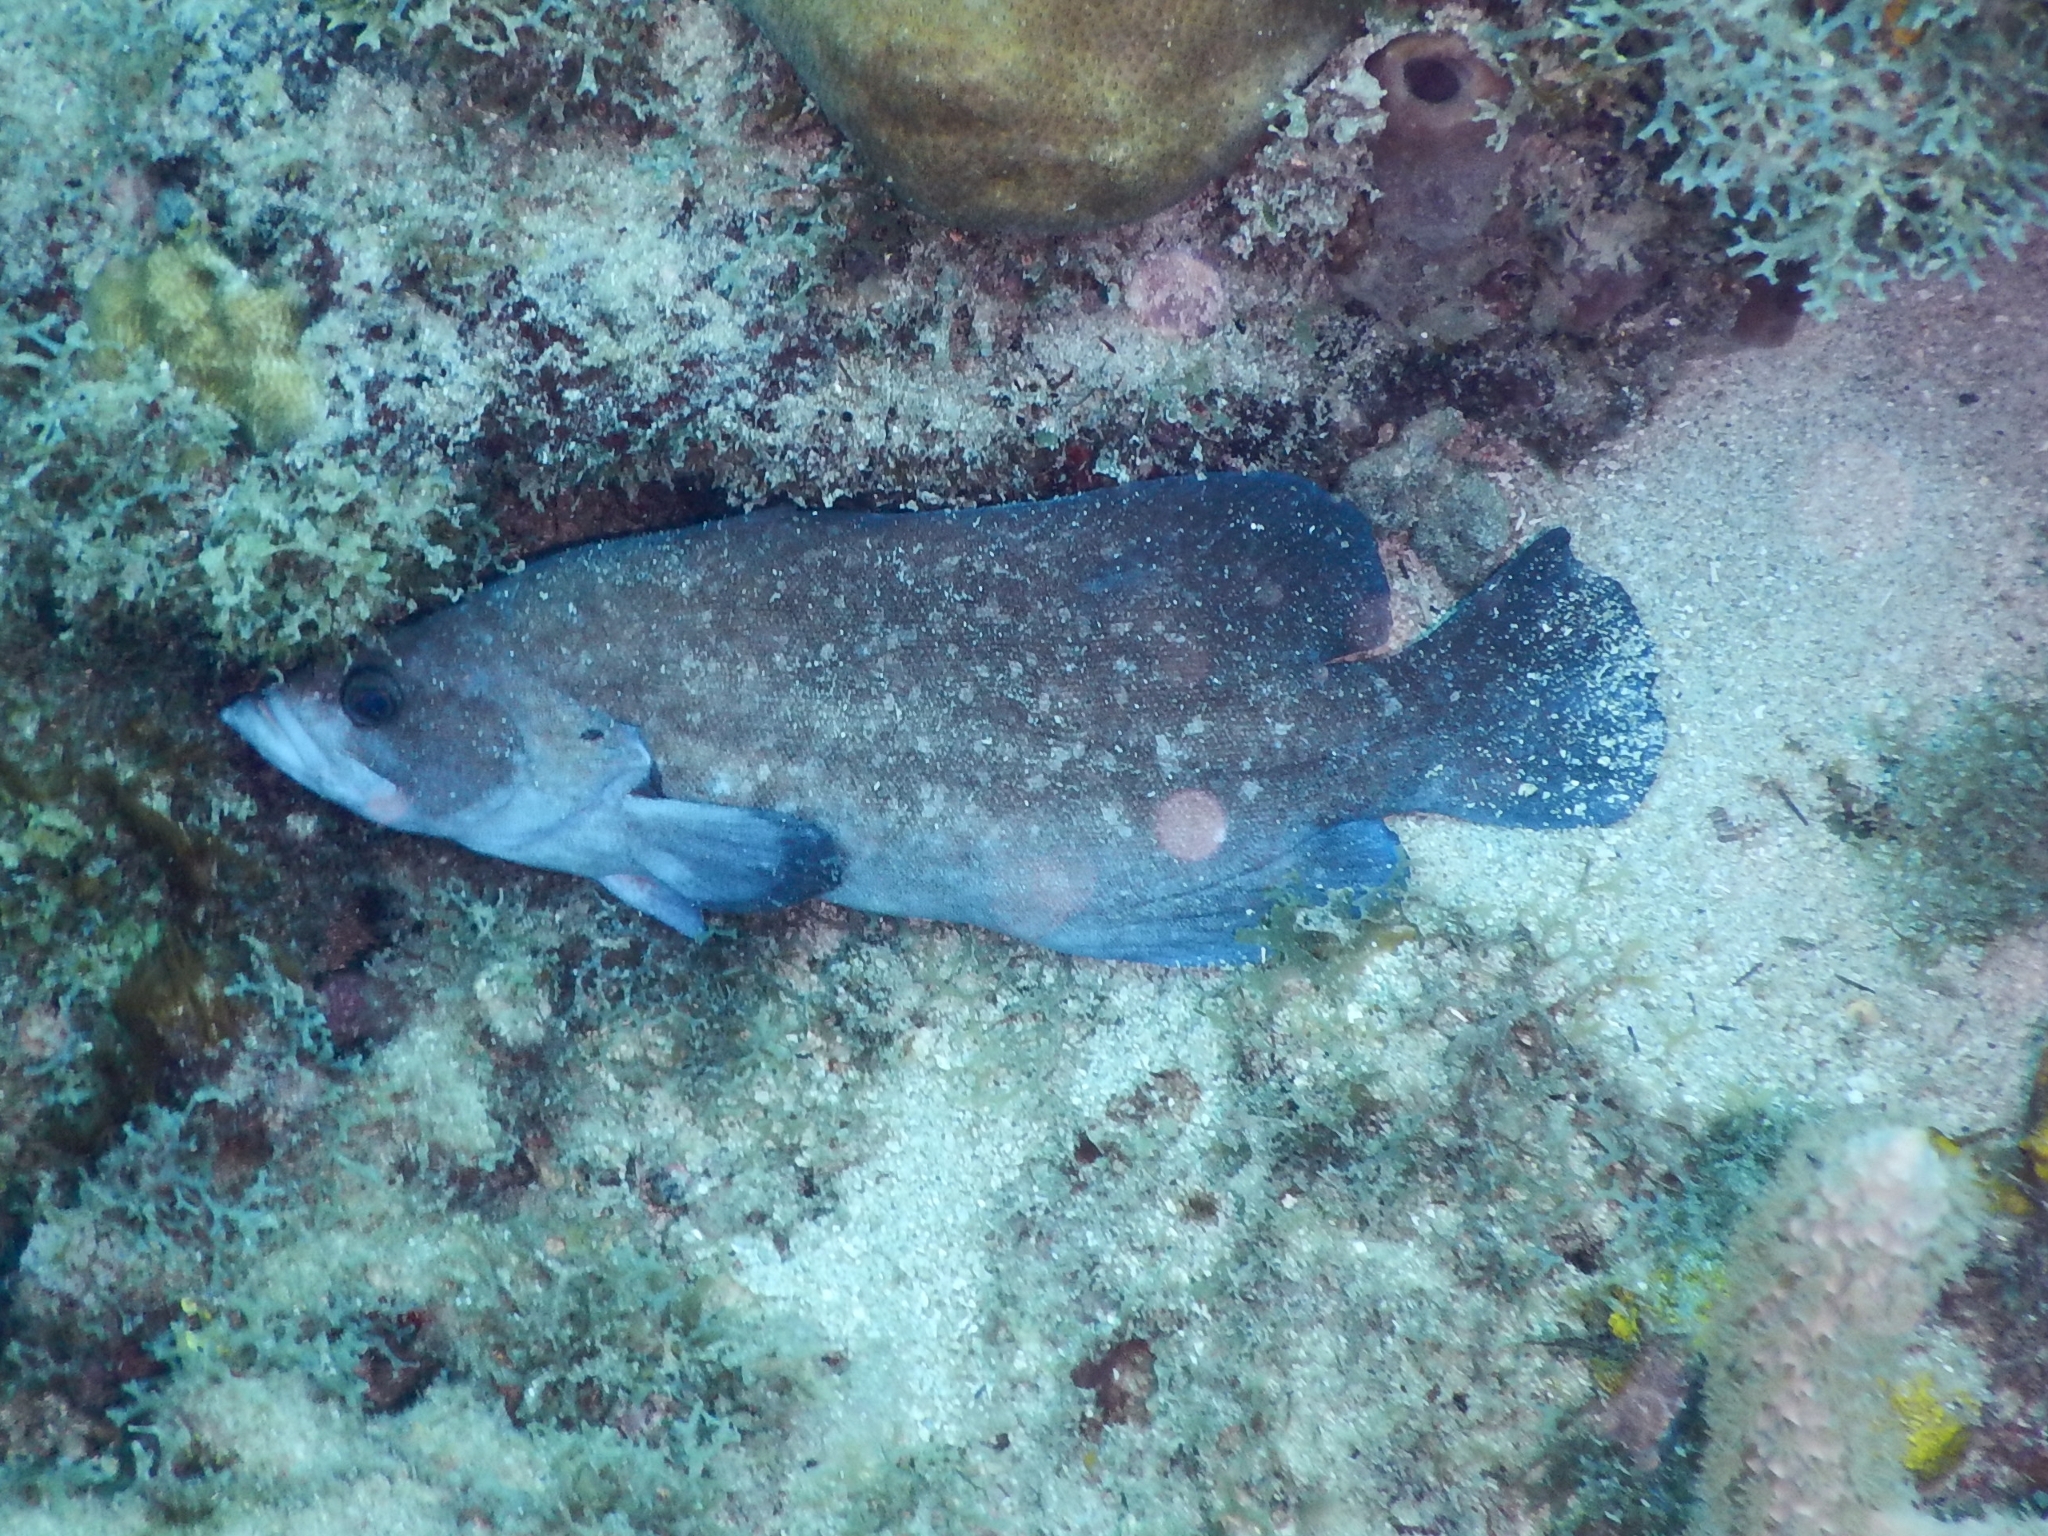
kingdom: Animalia
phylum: Chordata
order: Perciformes
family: Serranidae
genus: Rypticus
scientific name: Rypticus saponaceus
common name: Soapfish
